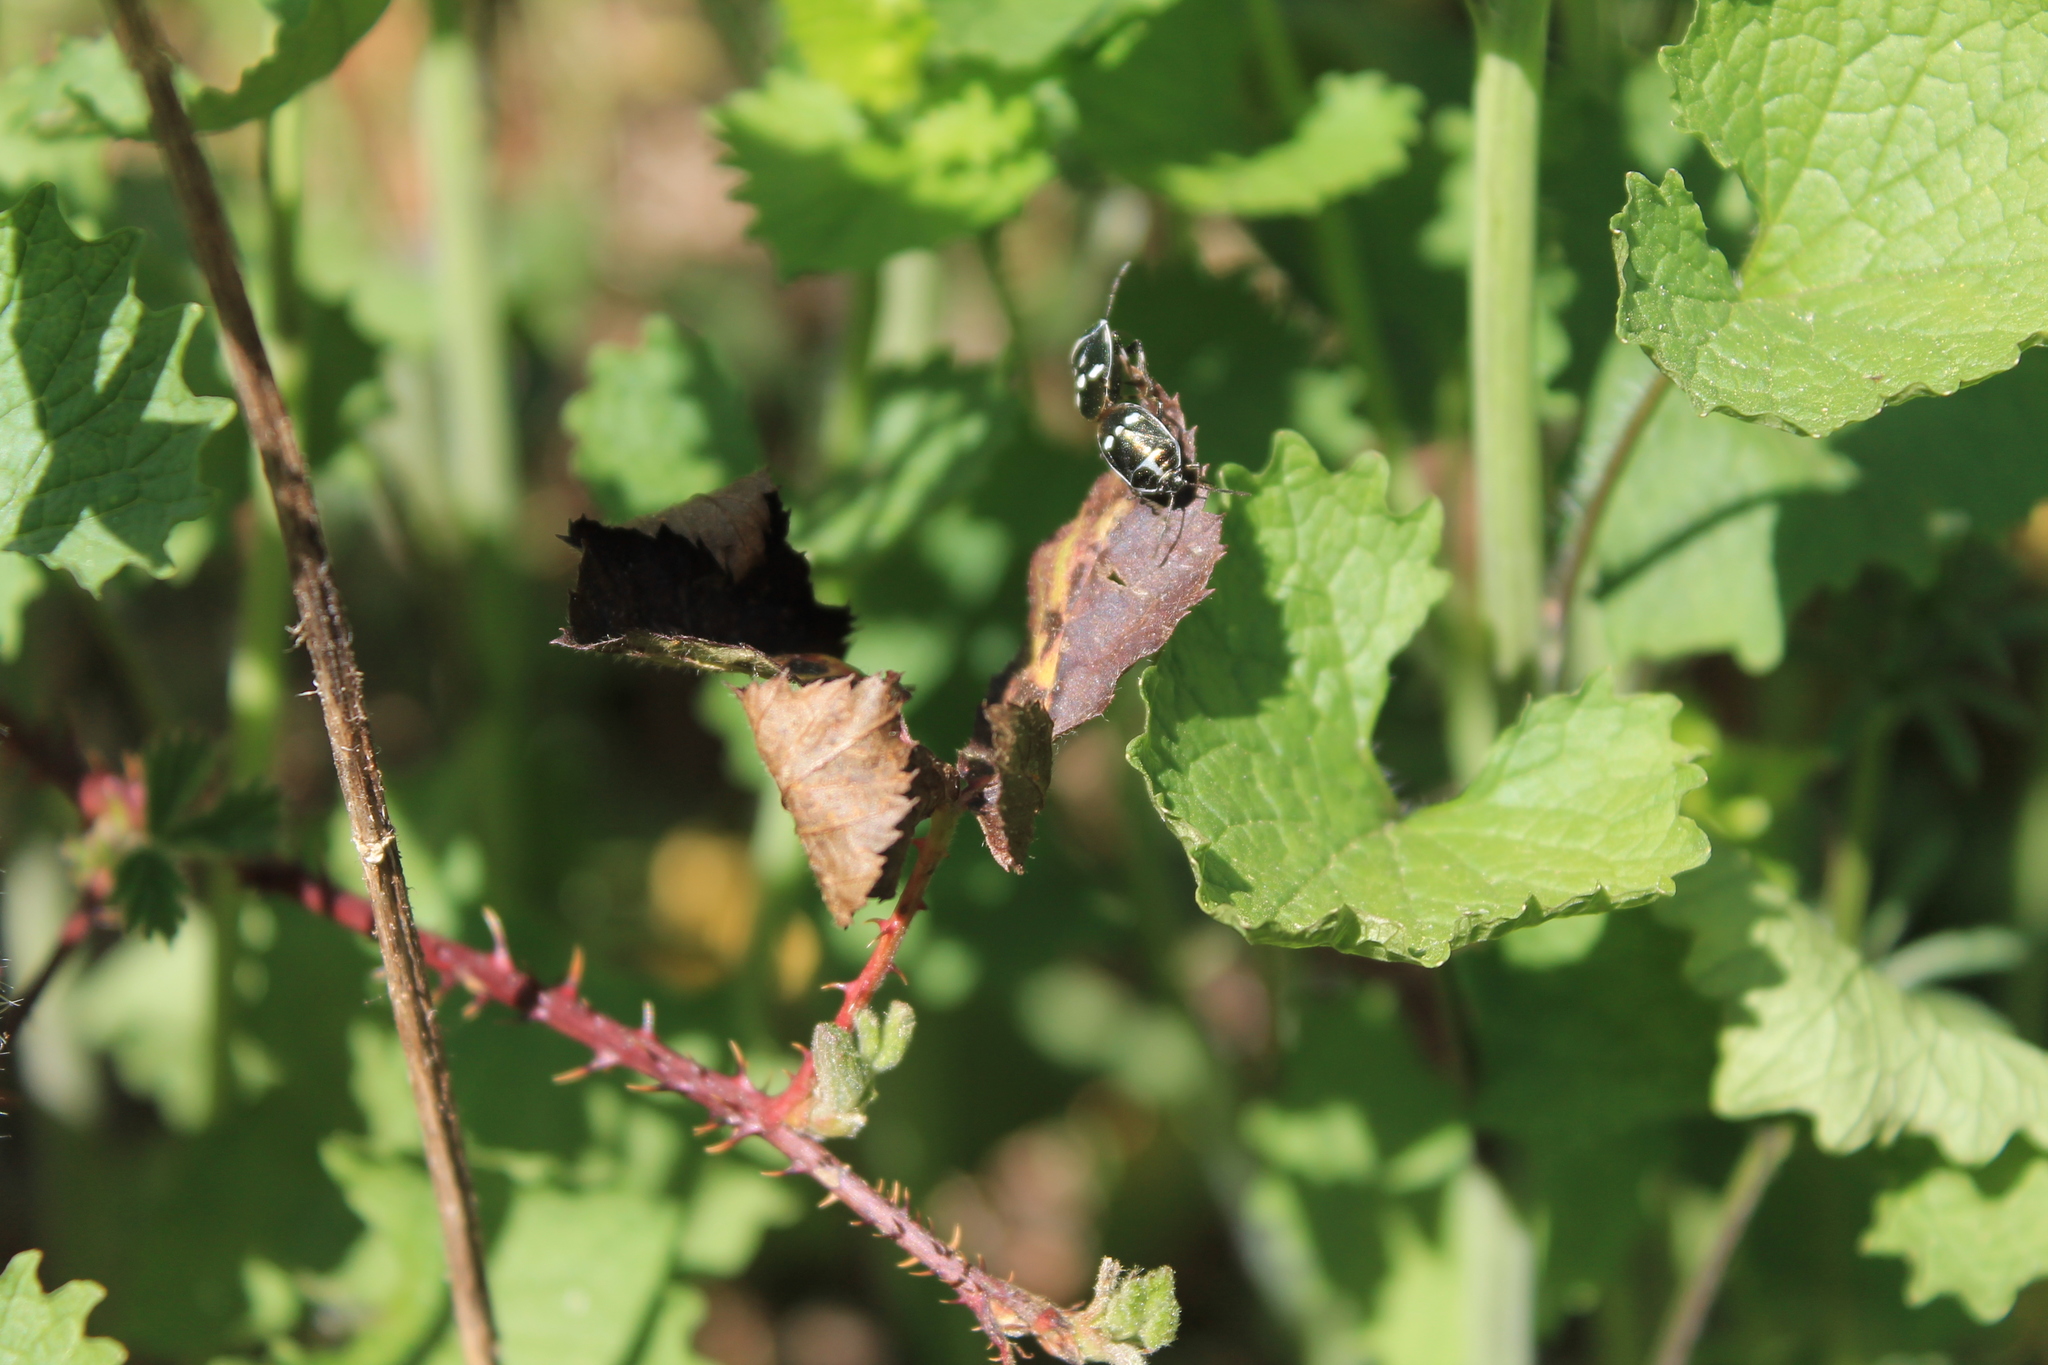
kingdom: Animalia
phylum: Arthropoda
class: Insecta
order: Hemiptera
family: Pentatomidae
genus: Eurydema
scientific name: Eurydema oleracea
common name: Cabbage bug
